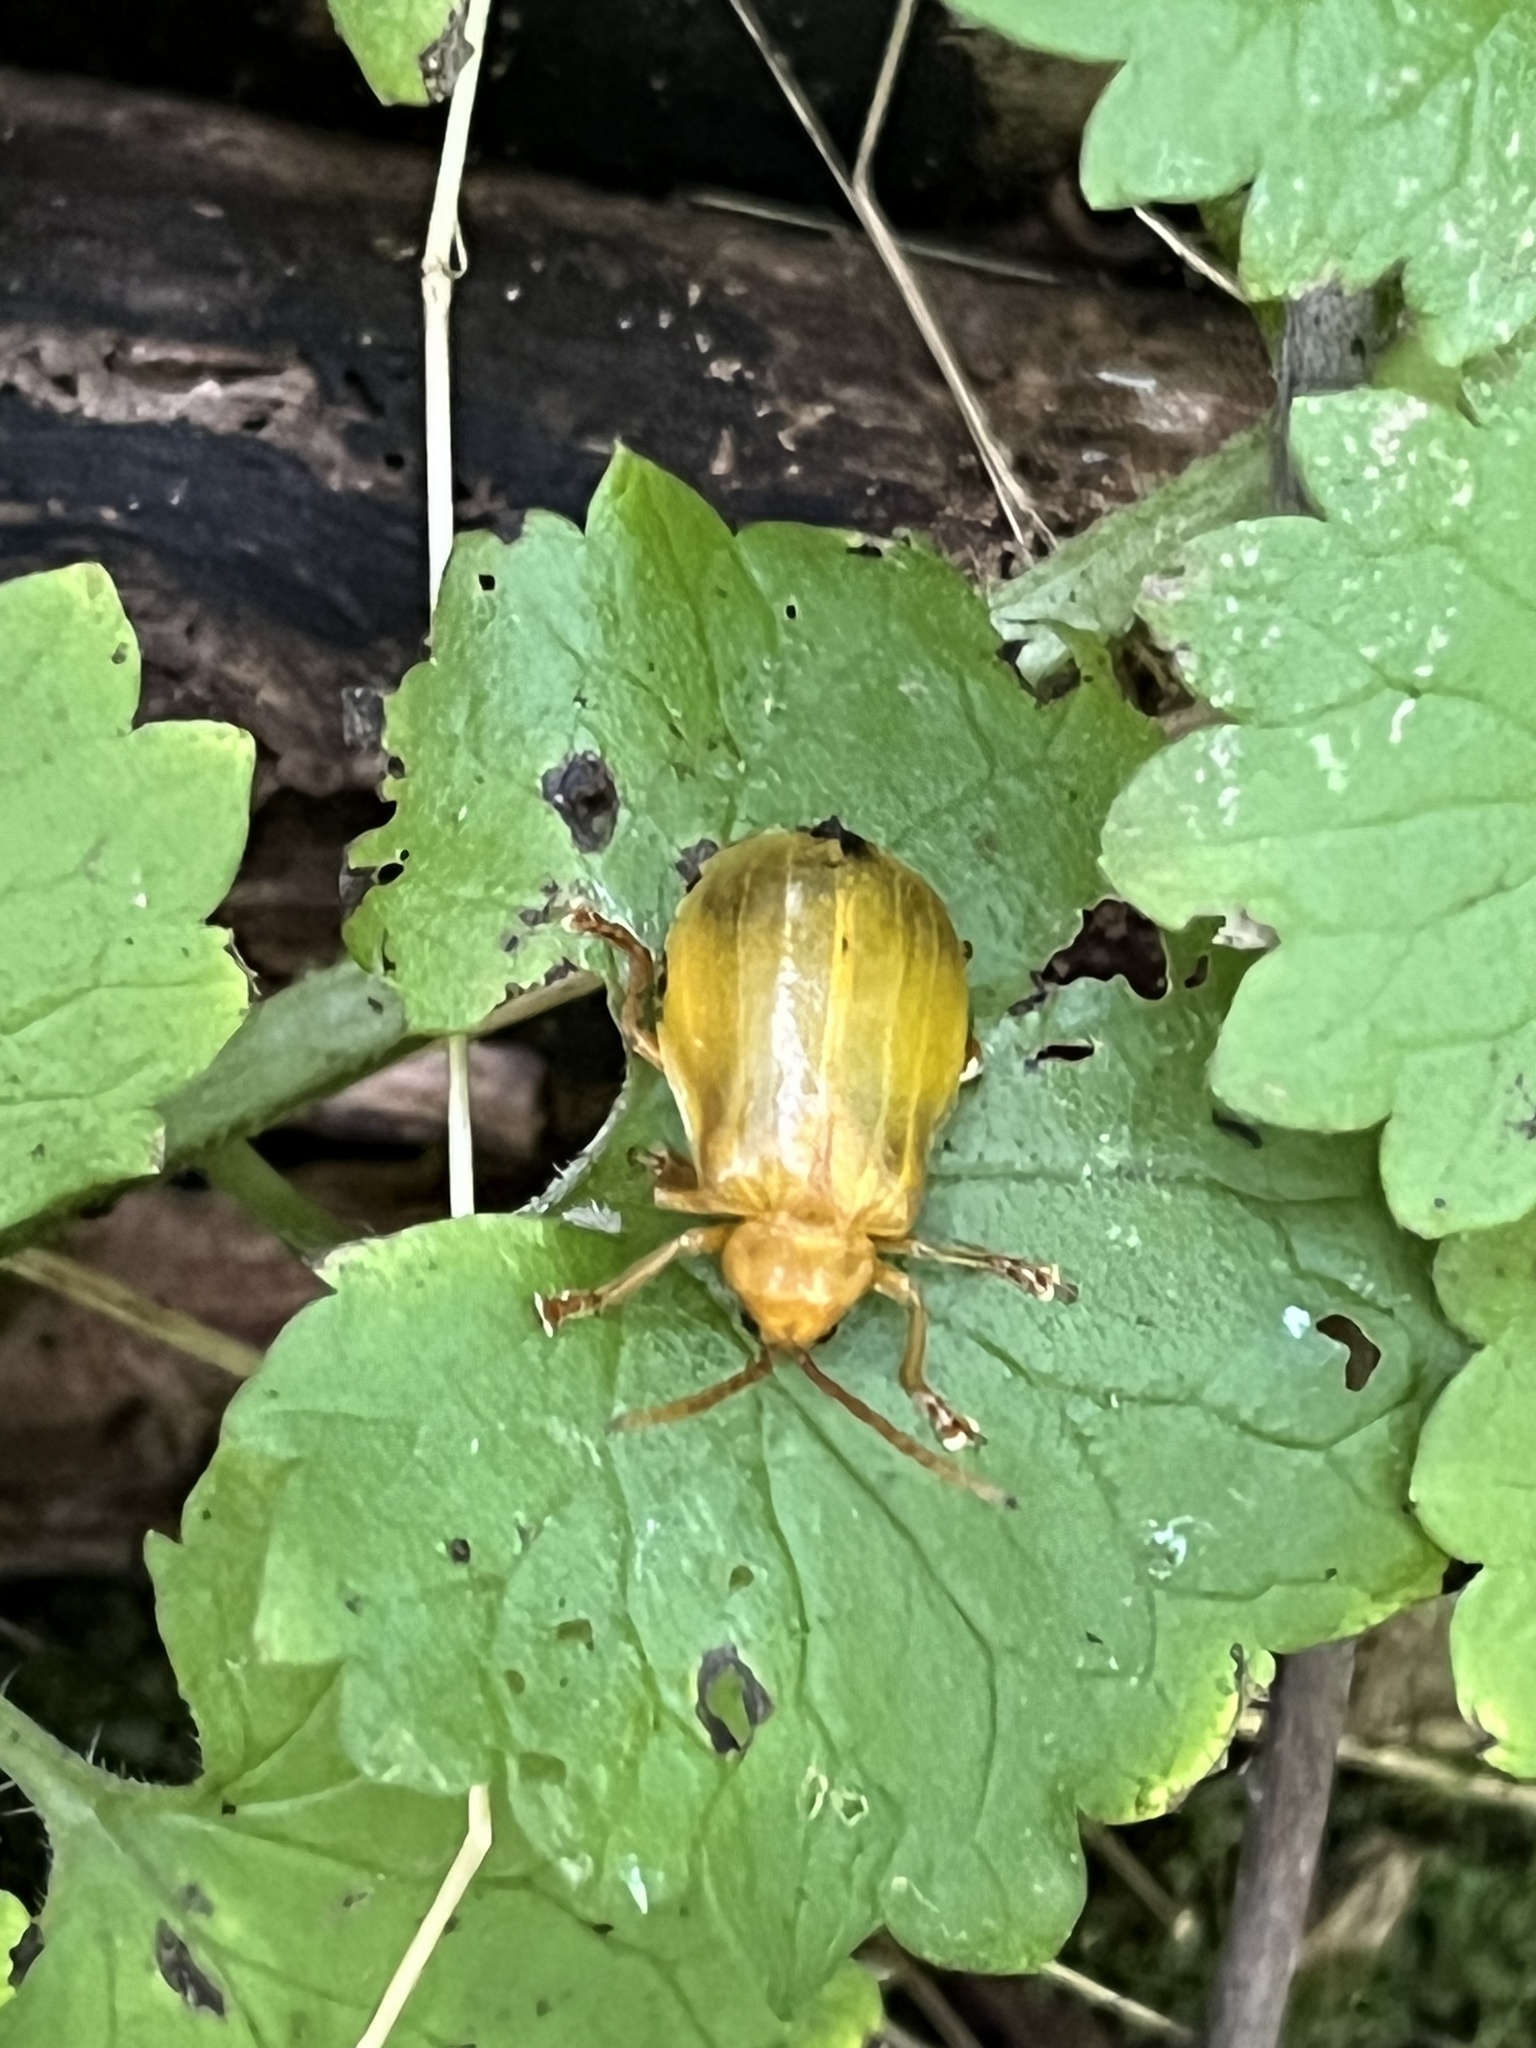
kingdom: Animalia
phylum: Arthropoda
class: Insecta
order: Coleoptera
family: Chrysomelidae
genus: Monocesta
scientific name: Monocesta coryli
